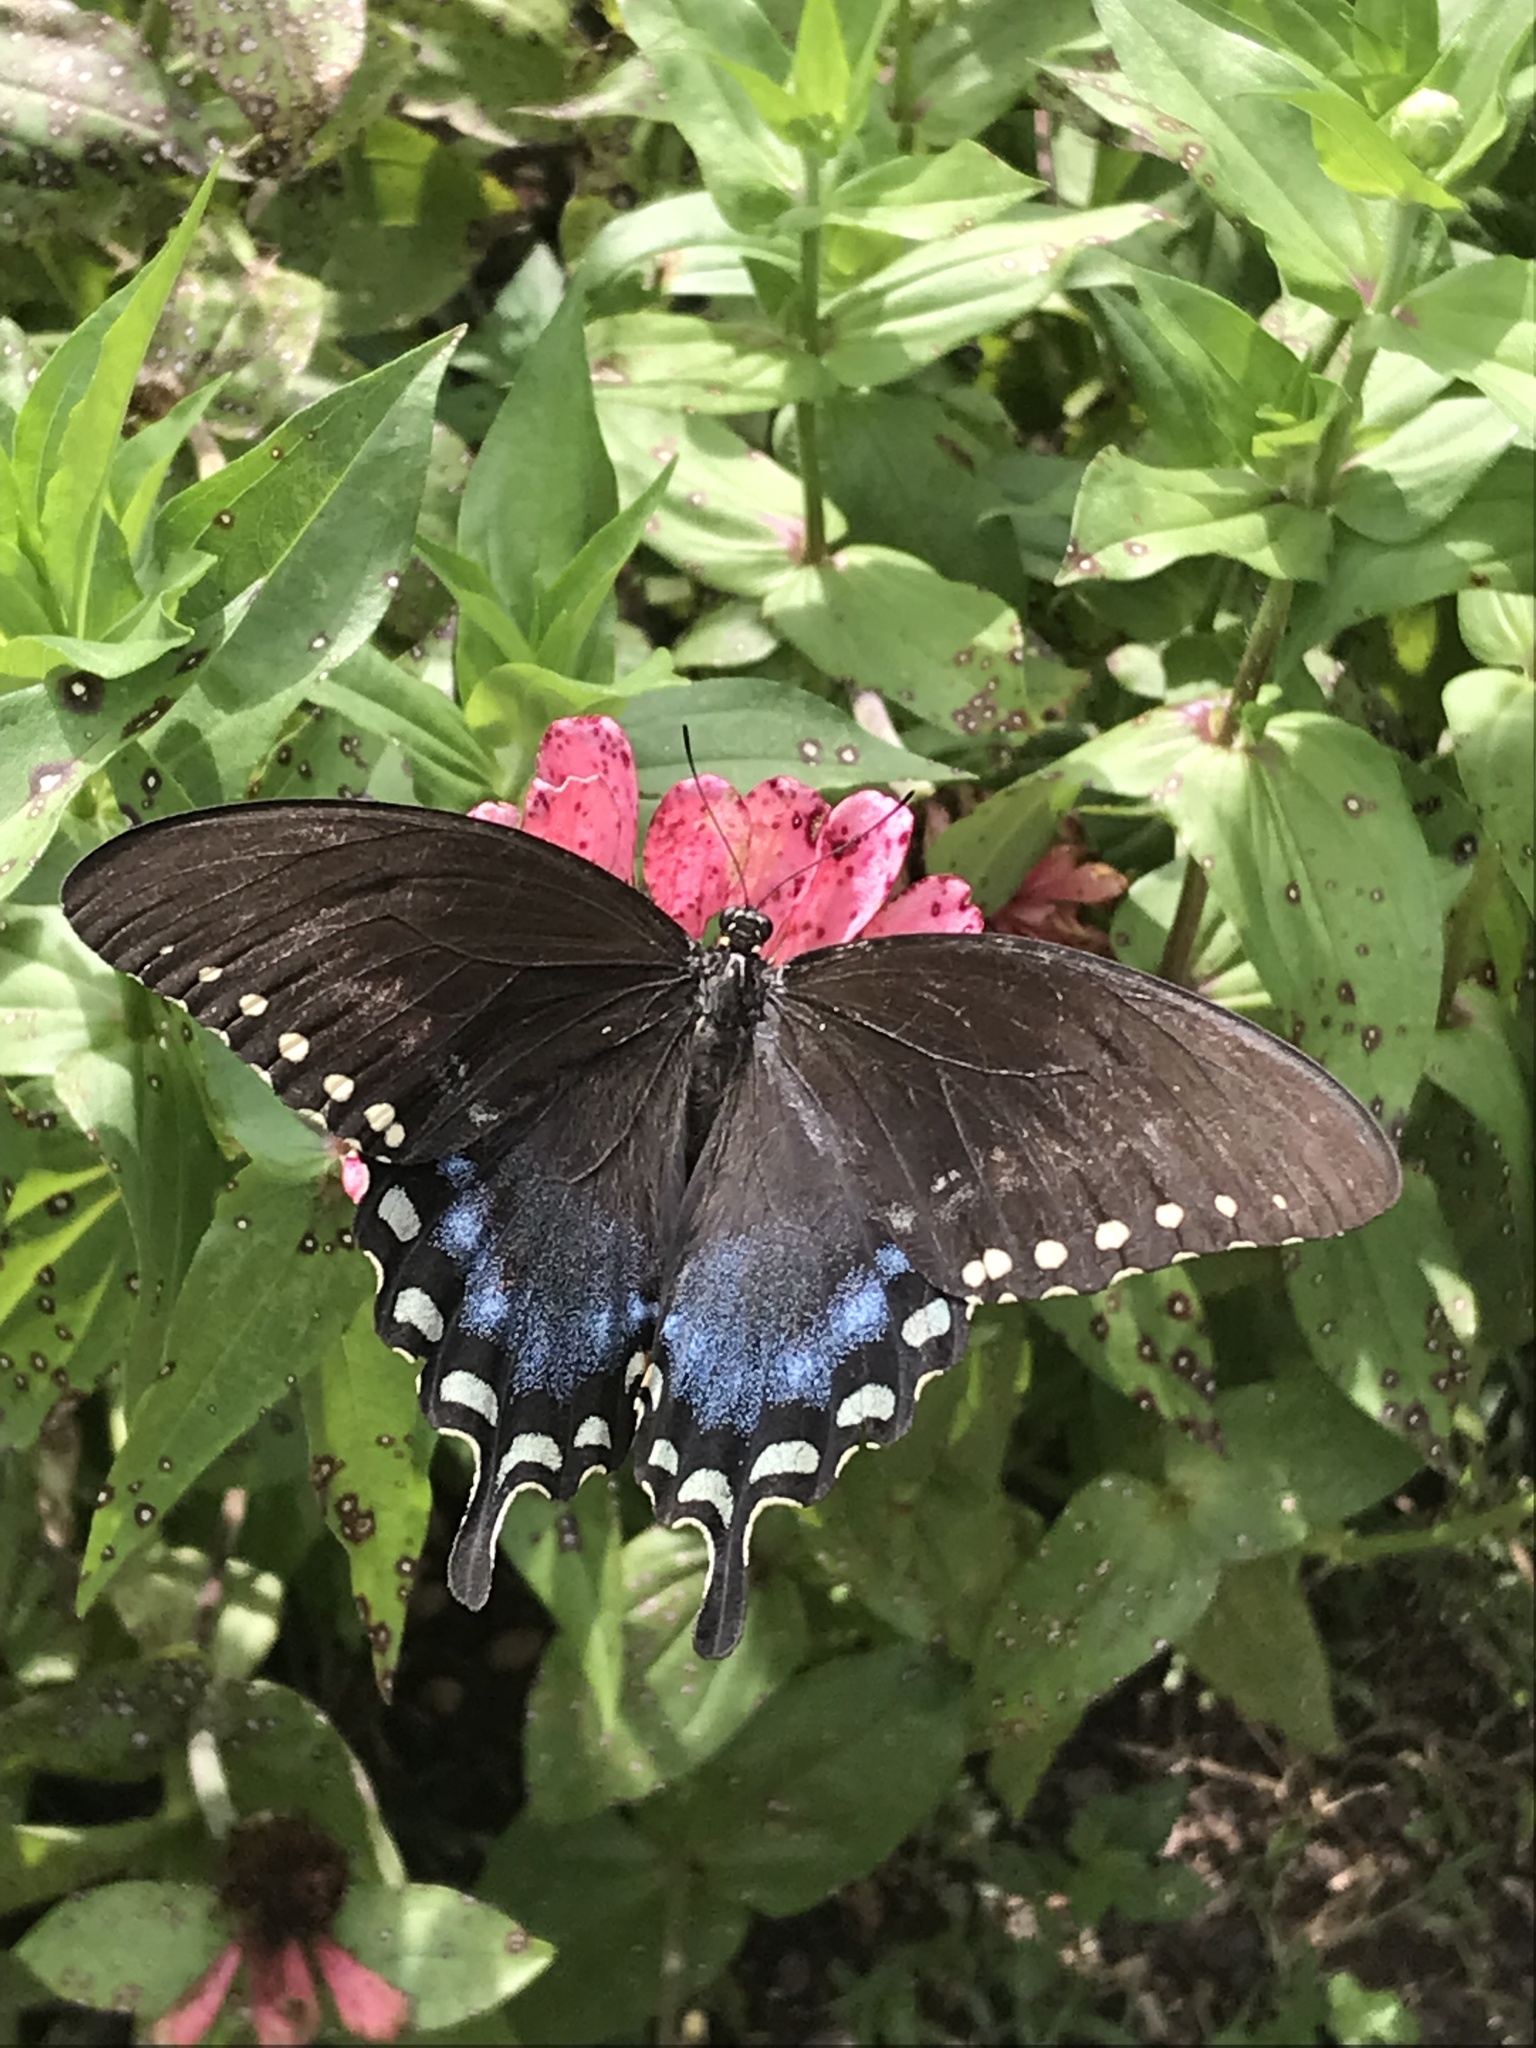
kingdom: Animalia
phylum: Arthropoda
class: Insecta
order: Lepidoptera
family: Papilionidae
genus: Papilio
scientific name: Papilio troilus
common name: Spicebush swallowtail
